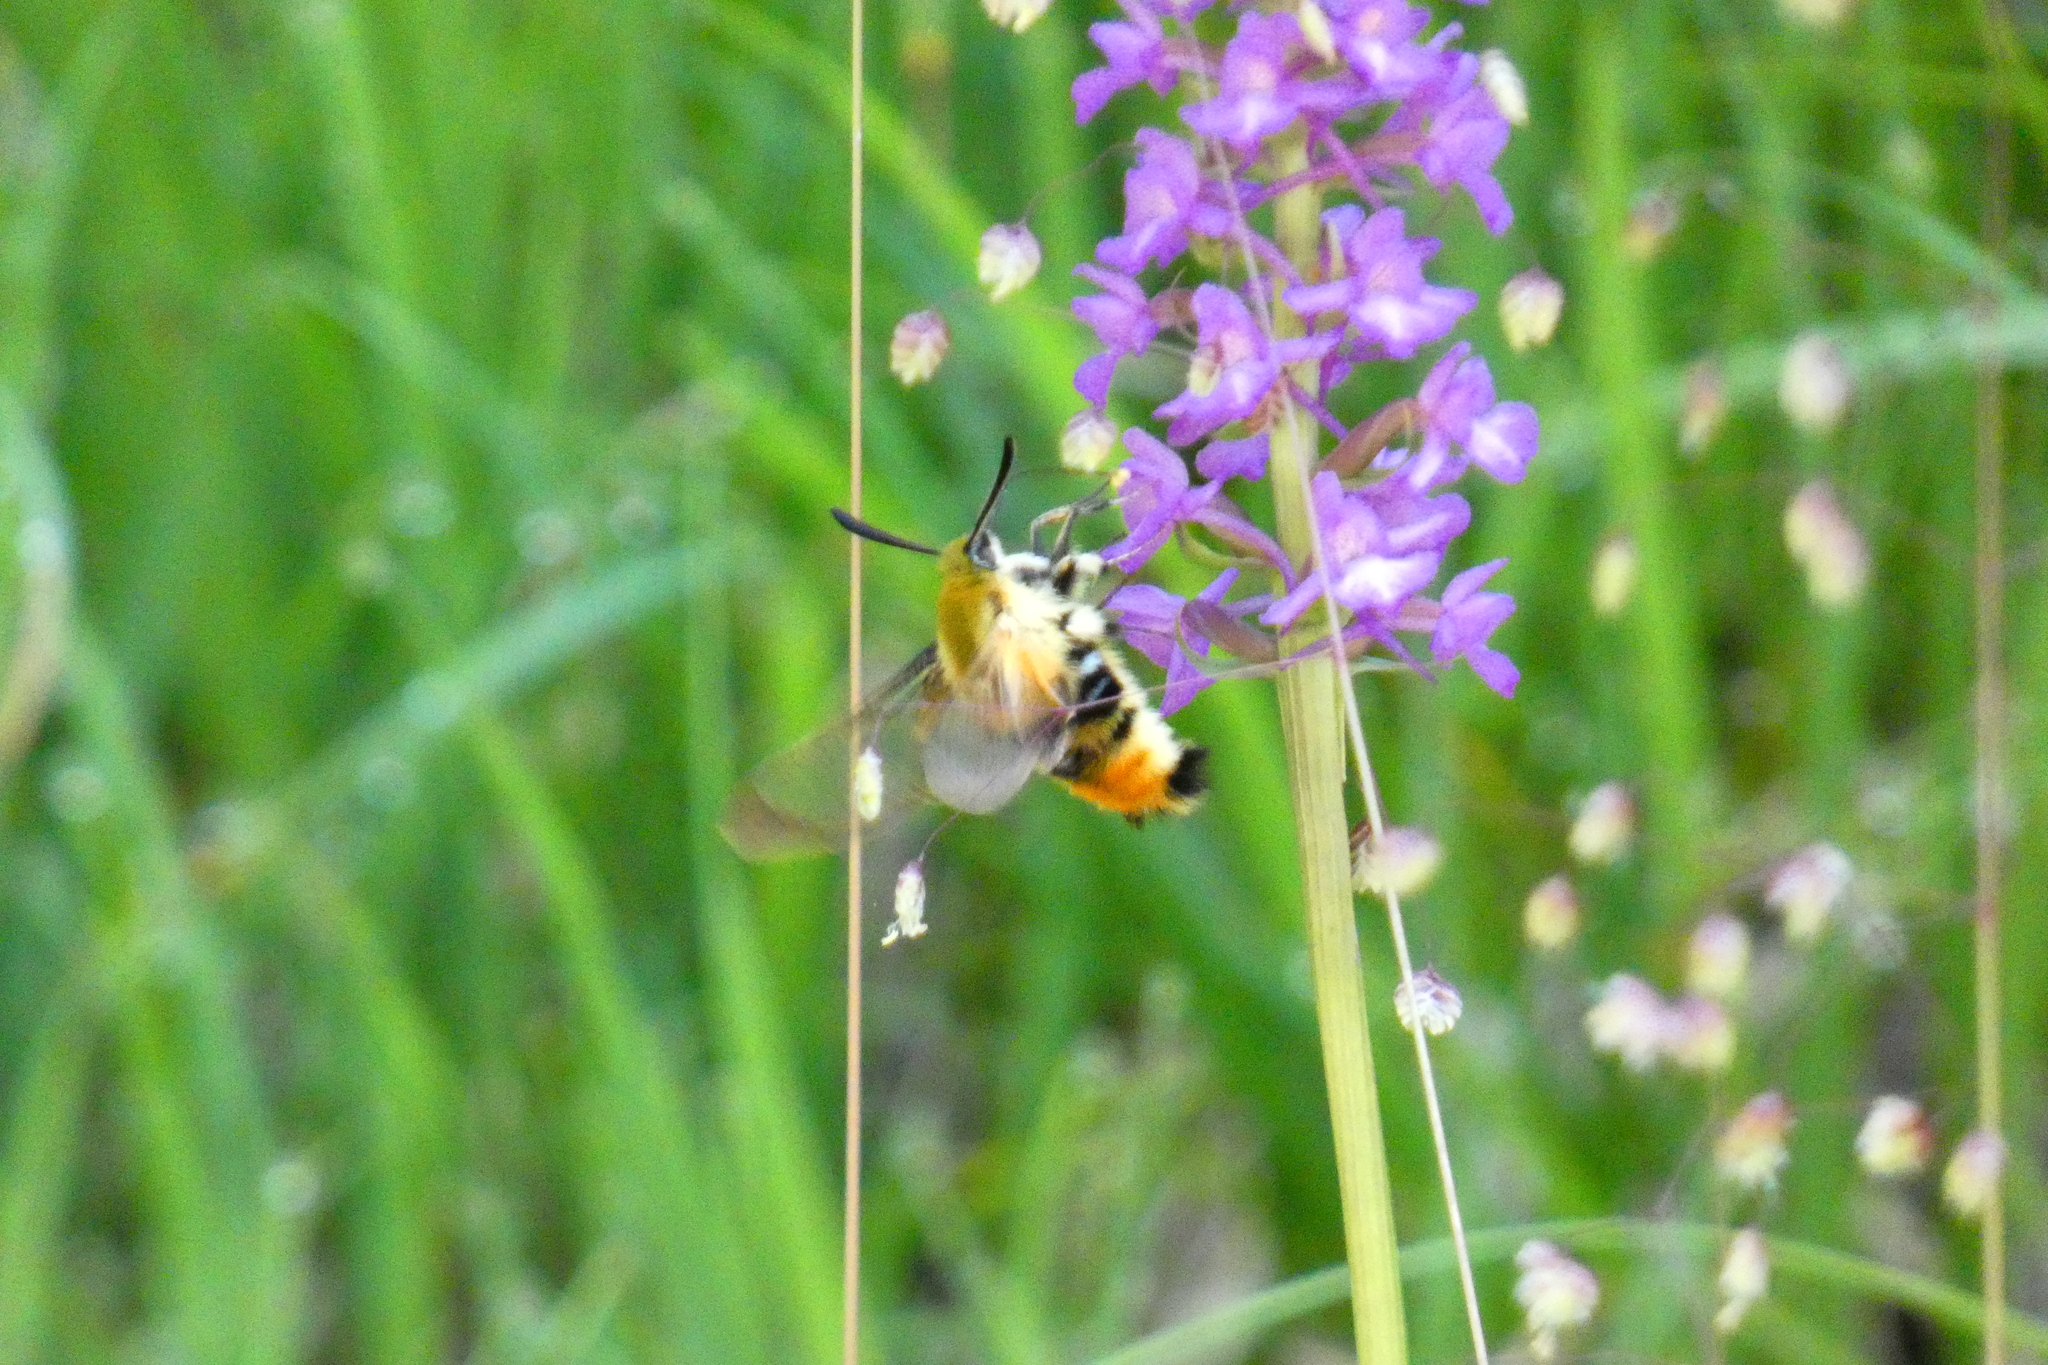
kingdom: Animalia
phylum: Arthropoda
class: Insecta
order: Lepidoptera
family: Sphingidae
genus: Hemaris
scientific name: Hemaris tityus
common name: Narrow-bordered bee hawk-moth
